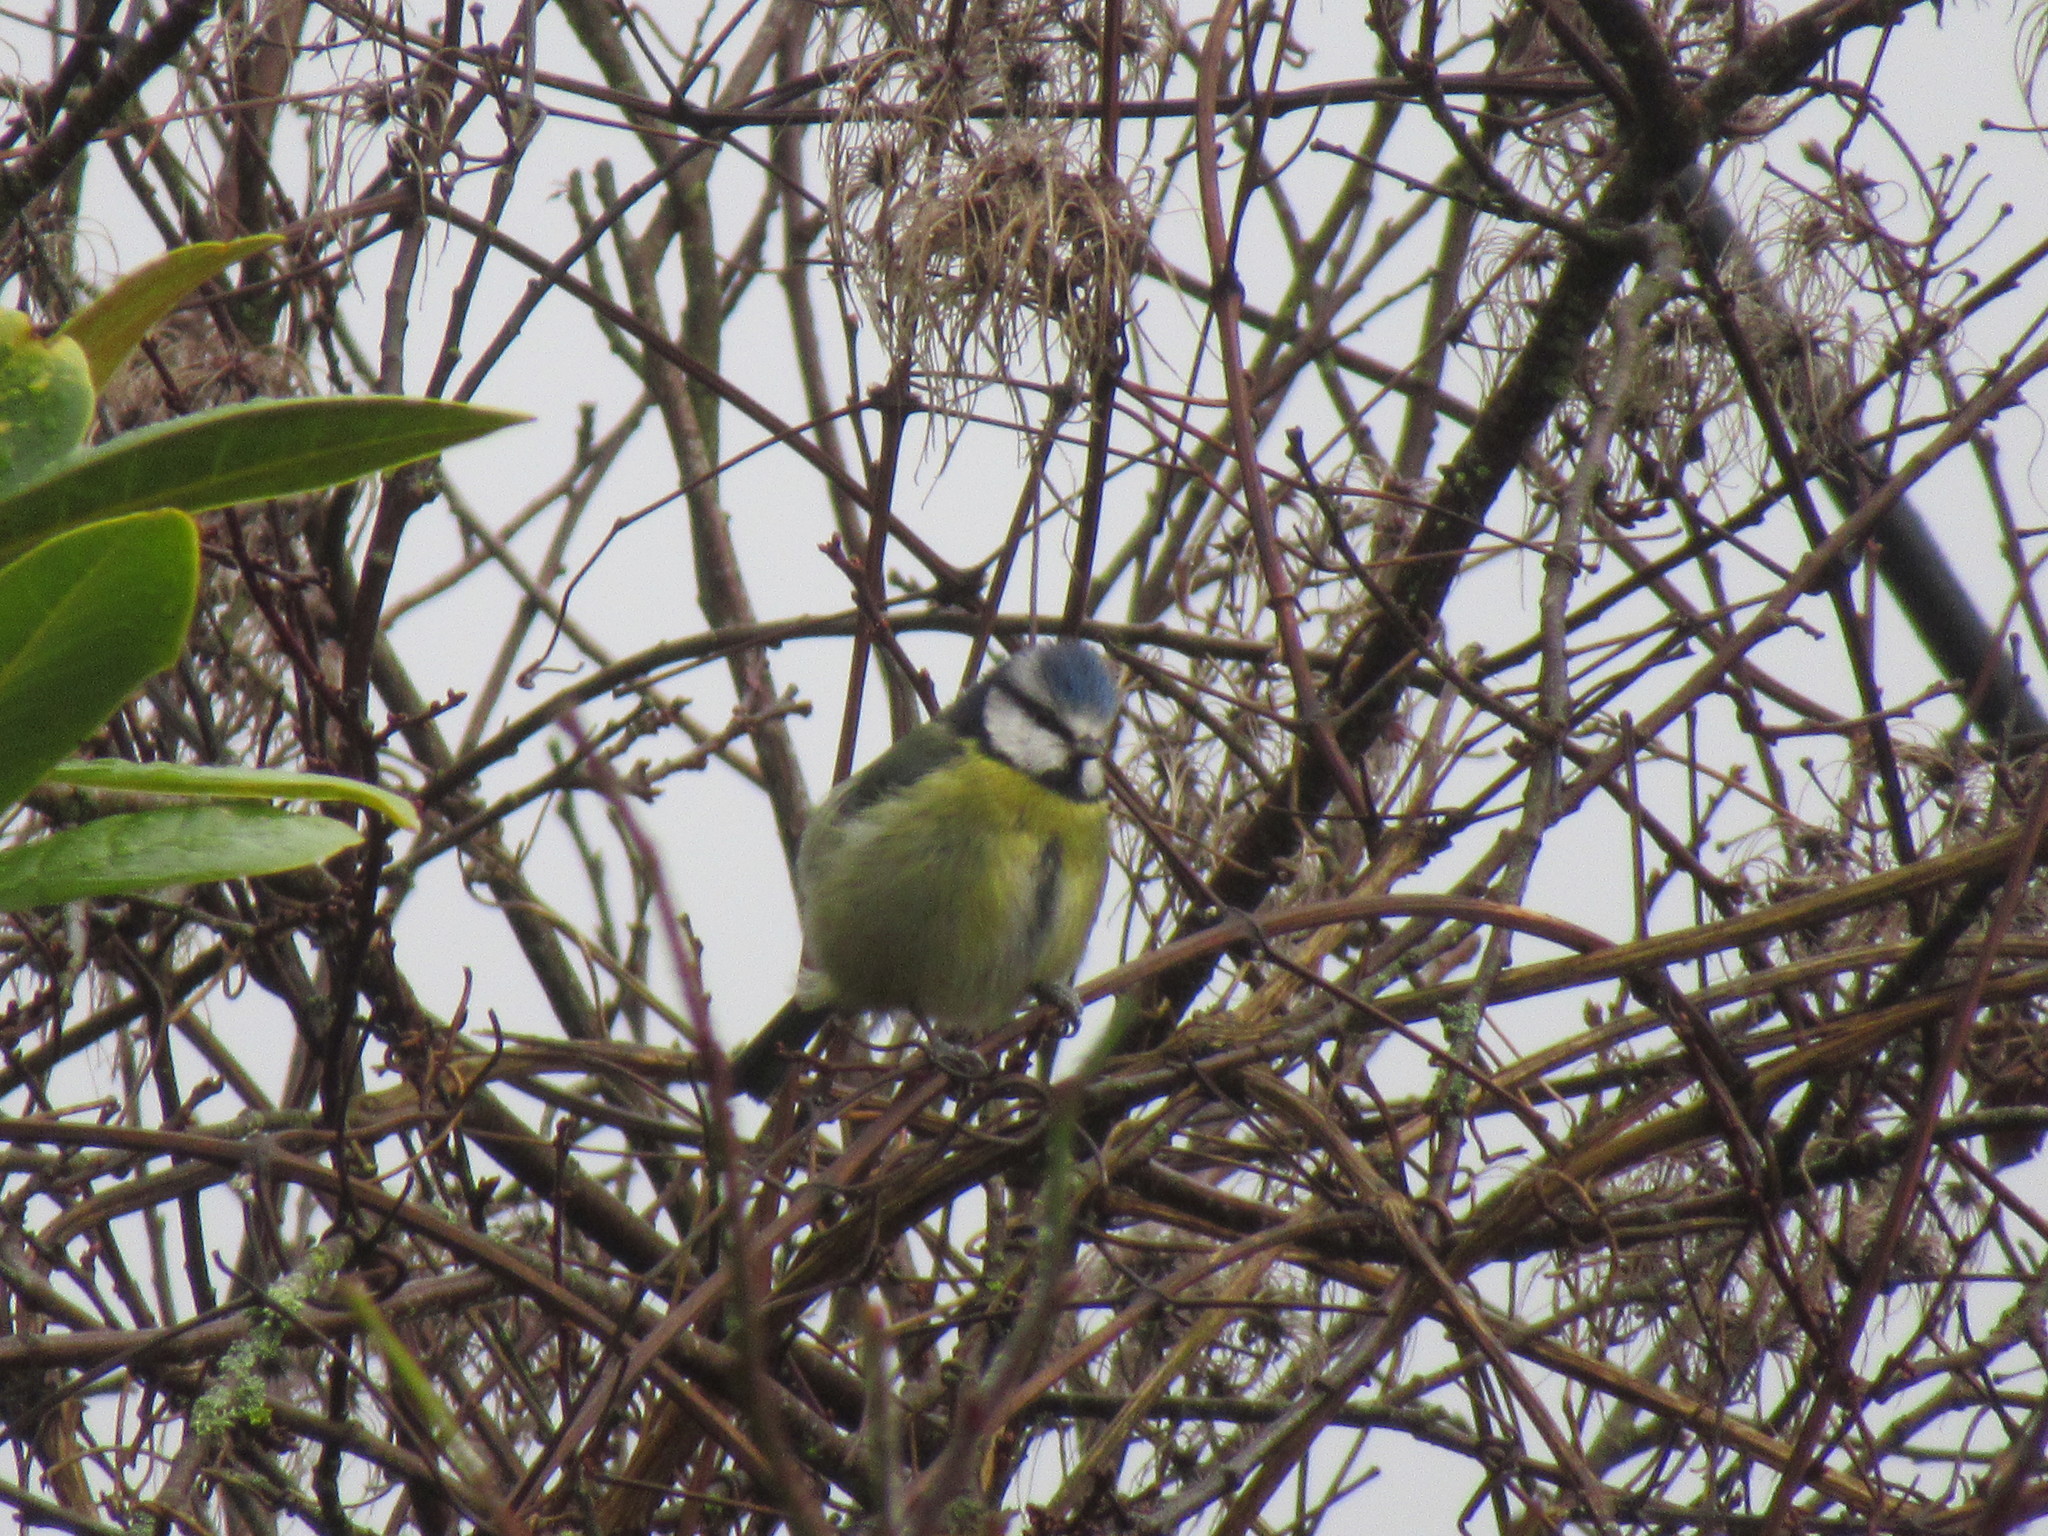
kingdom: Animalia
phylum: Chordata
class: Aves
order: Passeriformes
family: Paridae
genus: Cyanistes
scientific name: Cyanistes caeruleus
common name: Eurasian blue tit
